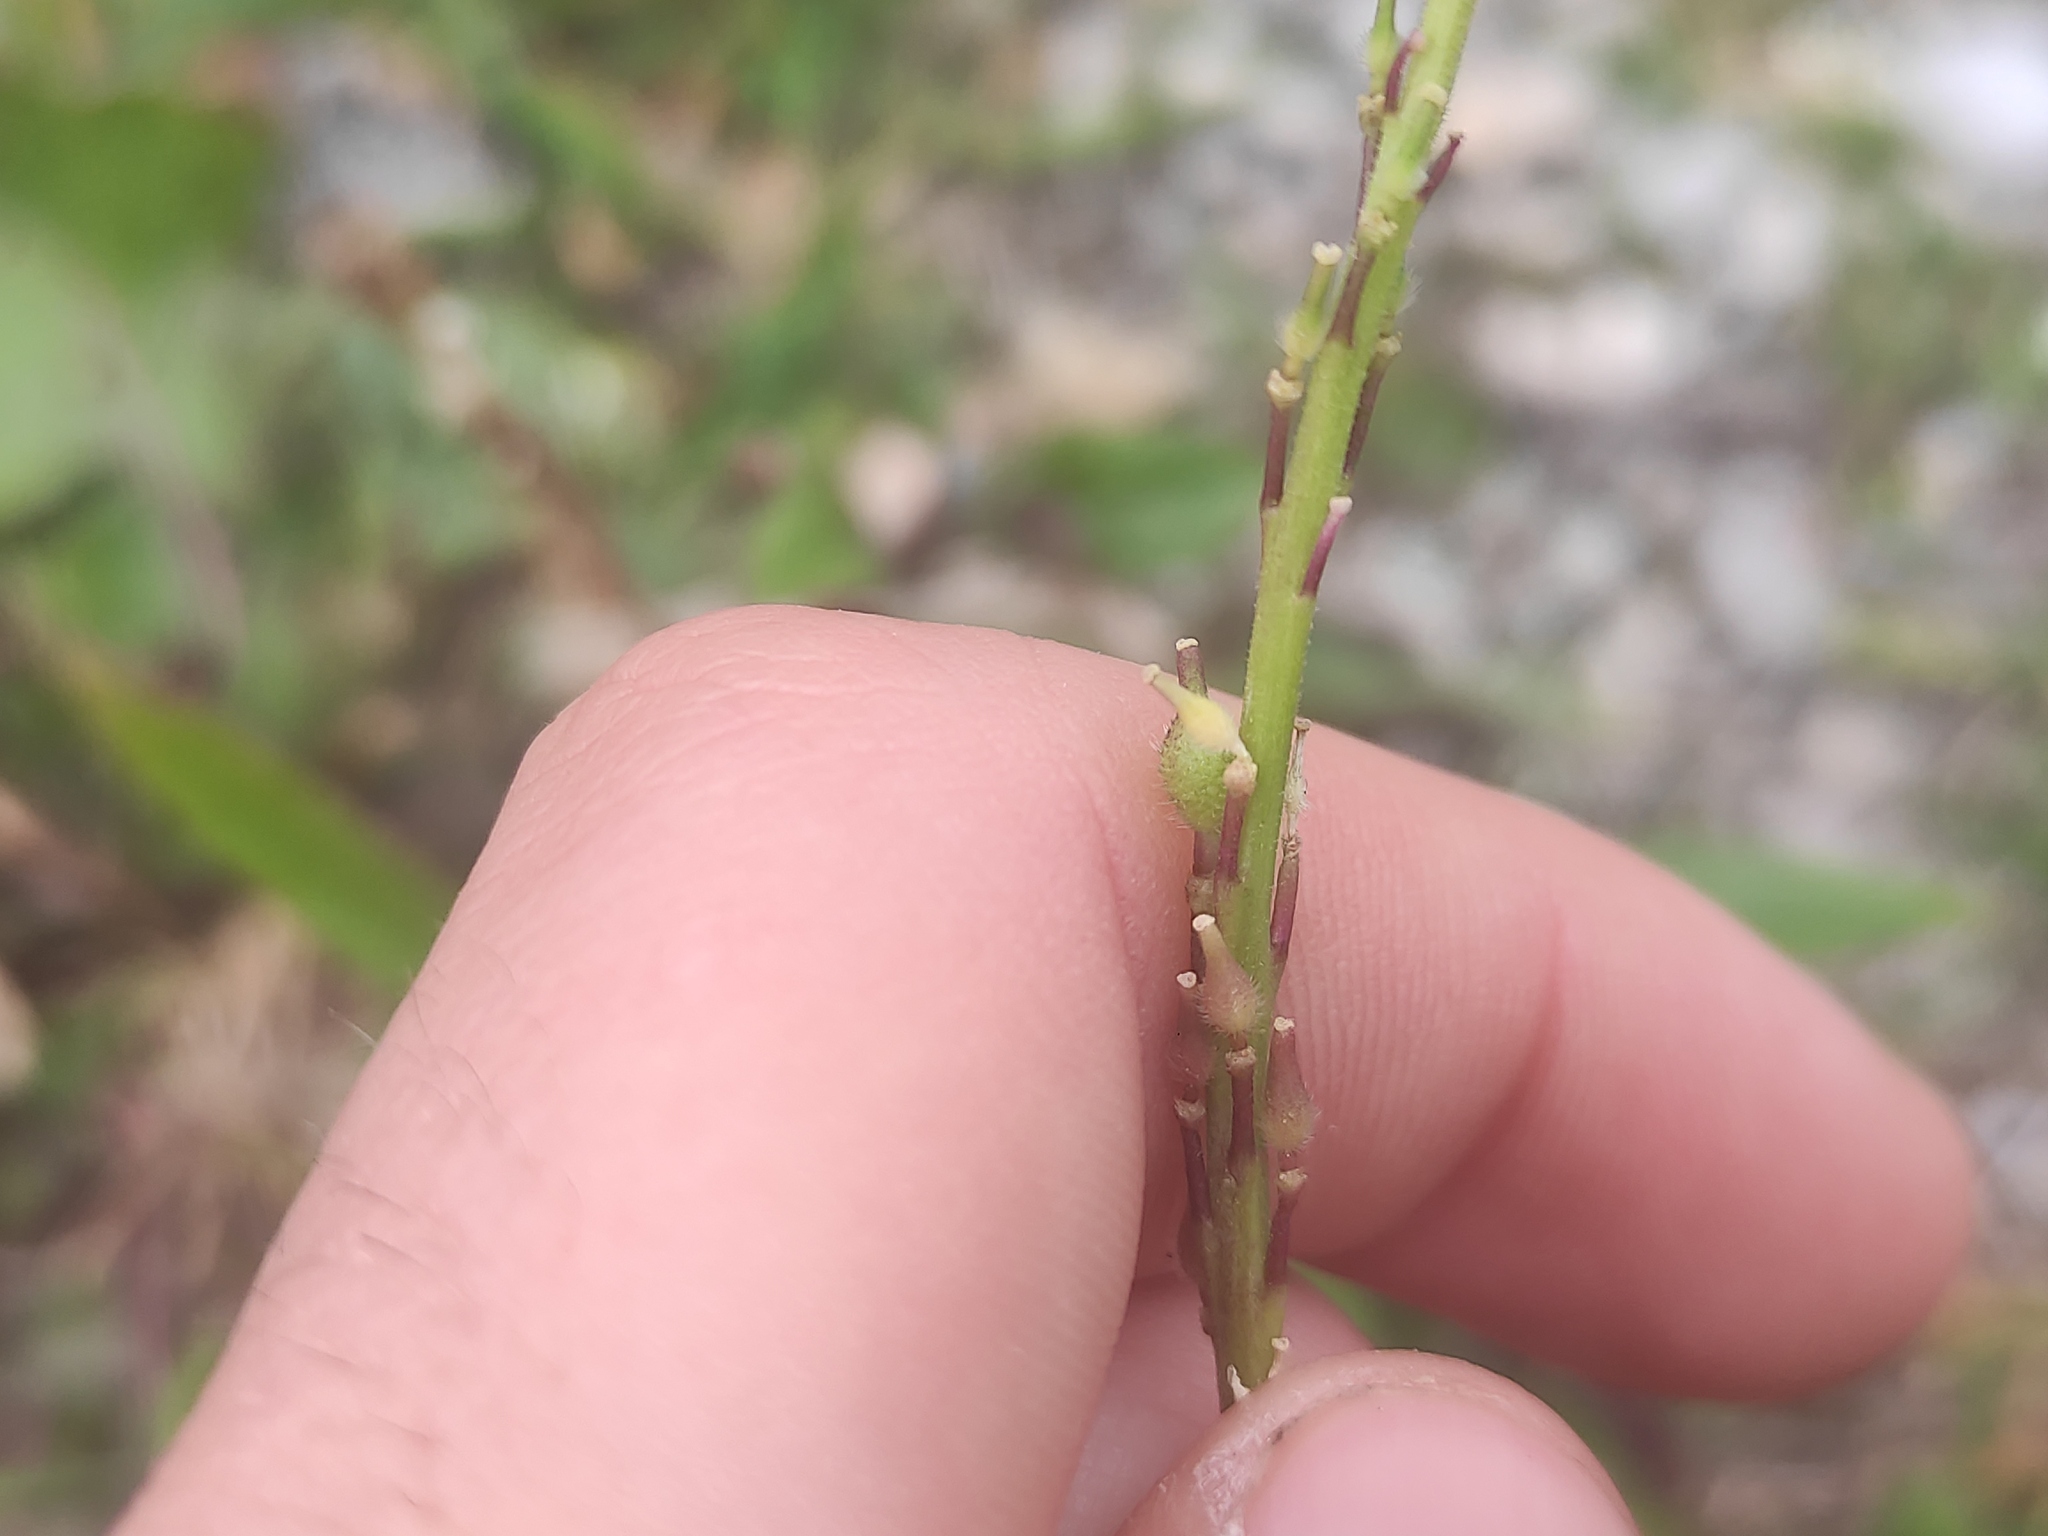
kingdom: Plantae
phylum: Tracheophyta
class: Magnoliopsida
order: Brassicales
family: Brassicaceae
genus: Rapistrum
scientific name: Rapistrum rugosum
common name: Annual bastardcabbage
